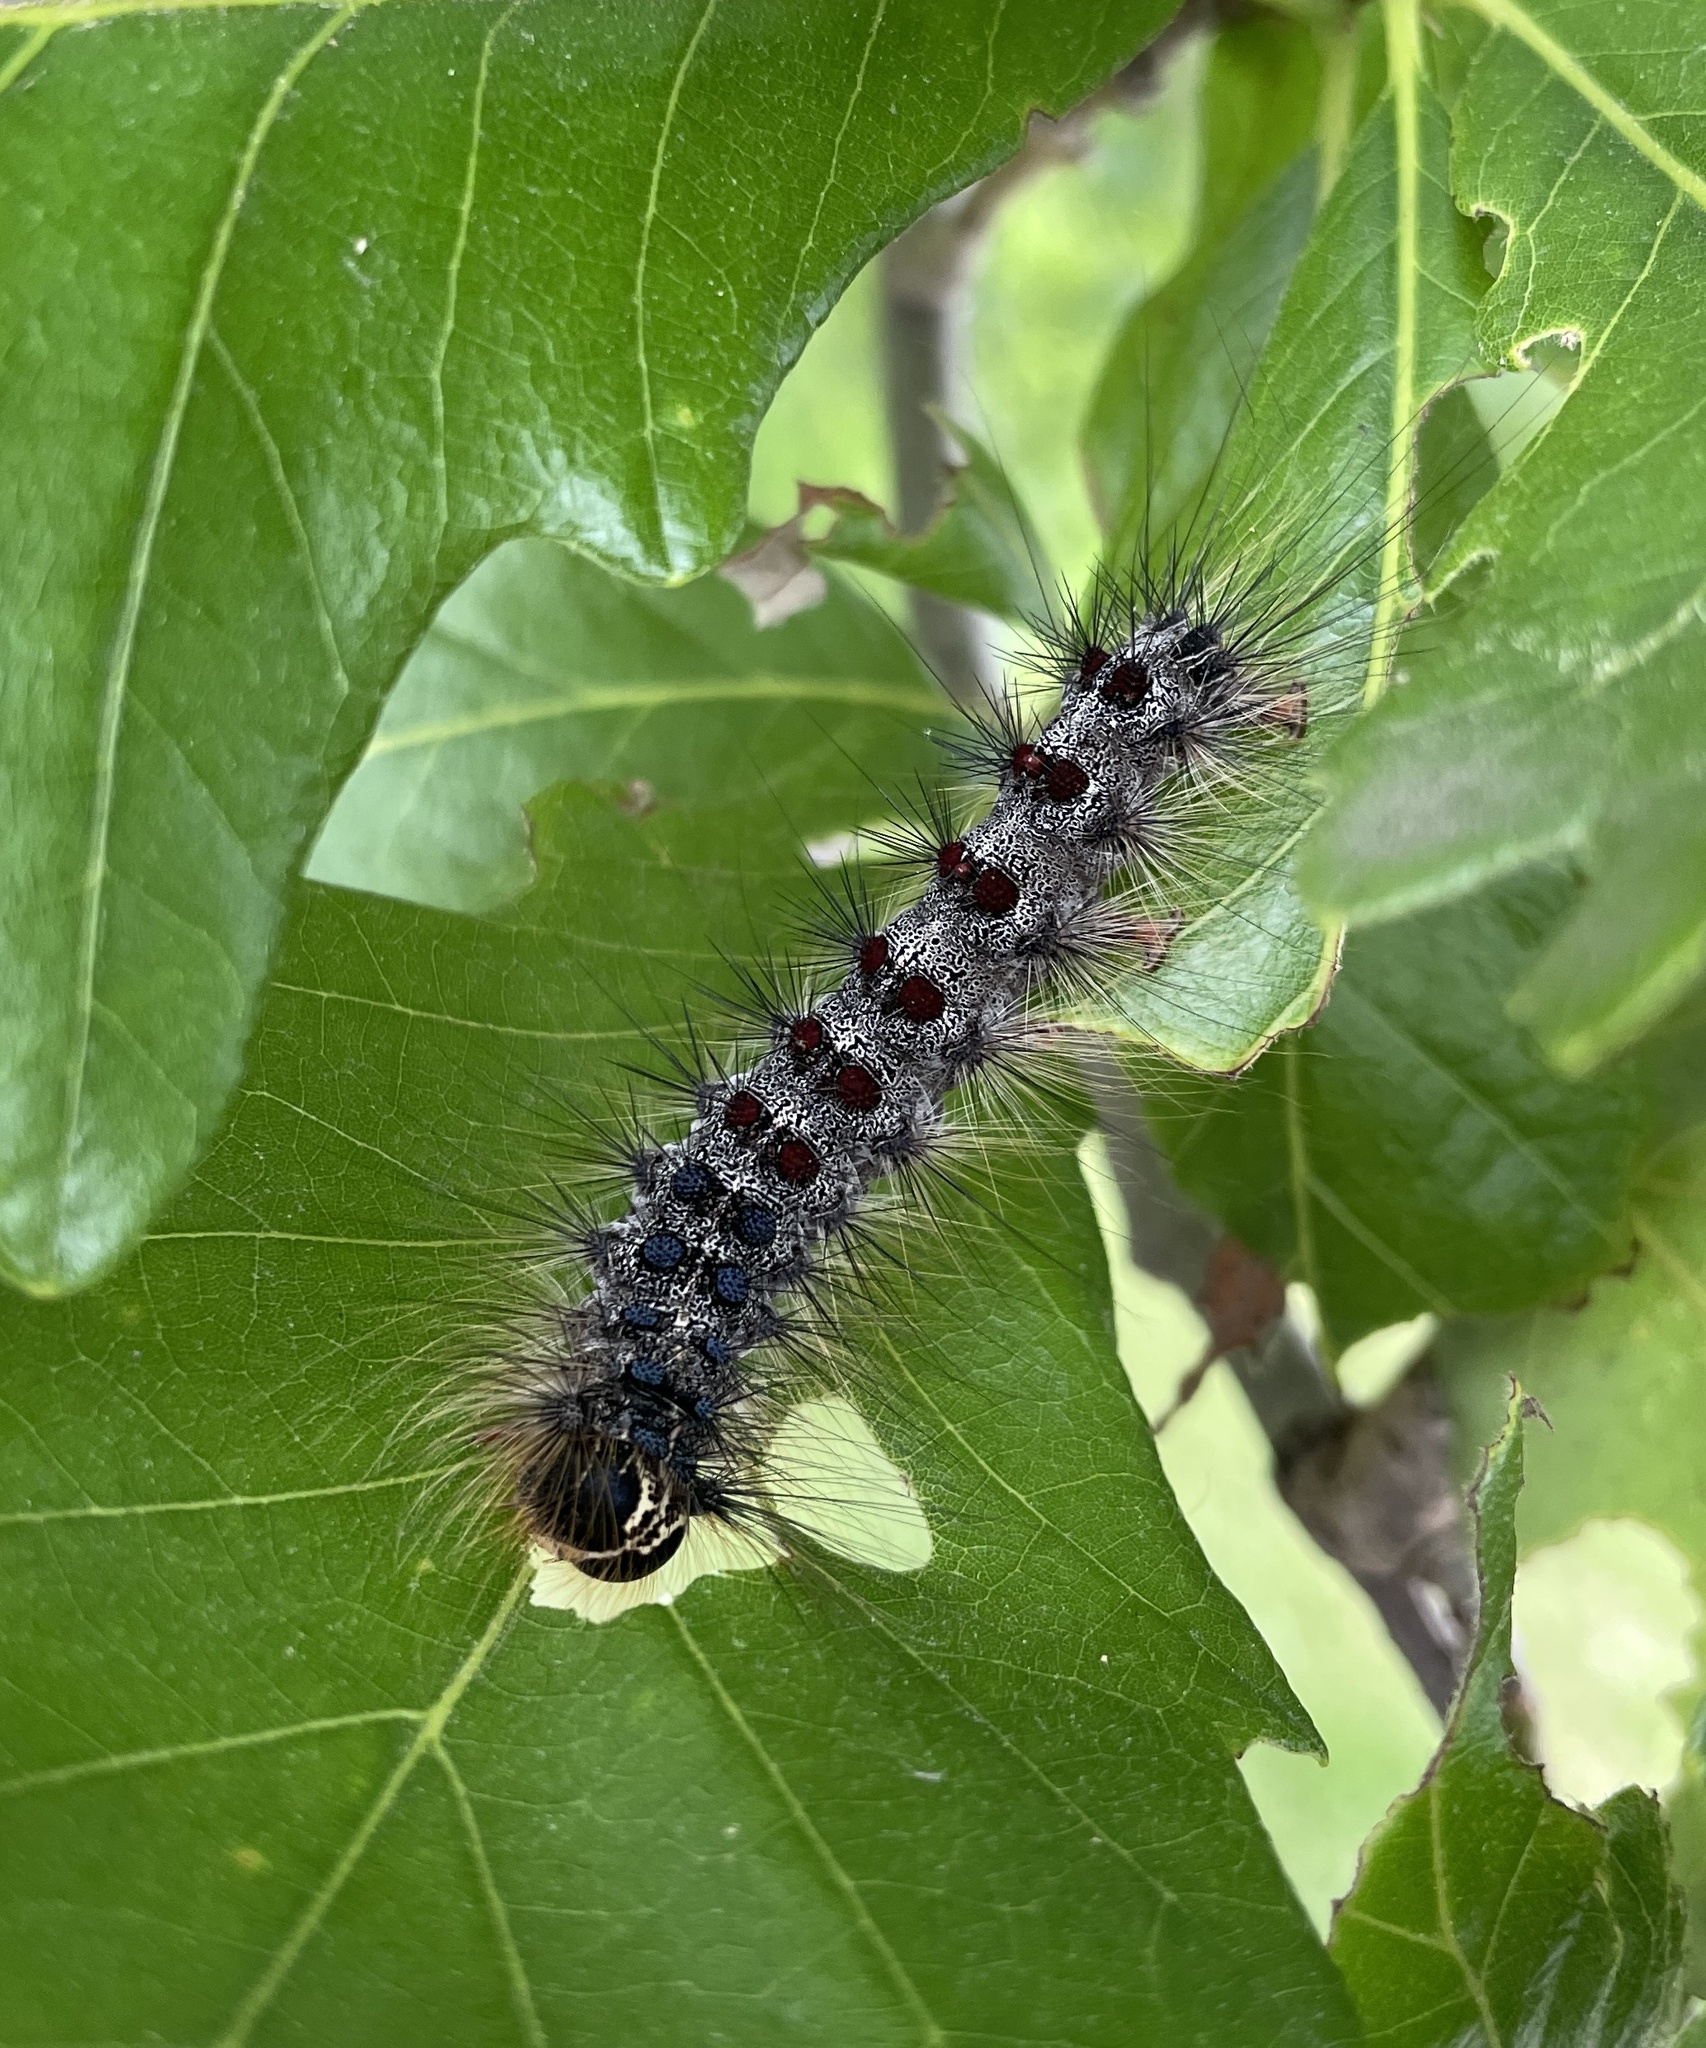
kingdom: Animalia
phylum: Arthropoda
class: Insecta
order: Lepidoptera
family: Erebidae
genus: Lymantria
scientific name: Lymantria dispar
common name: Gypsy moth
